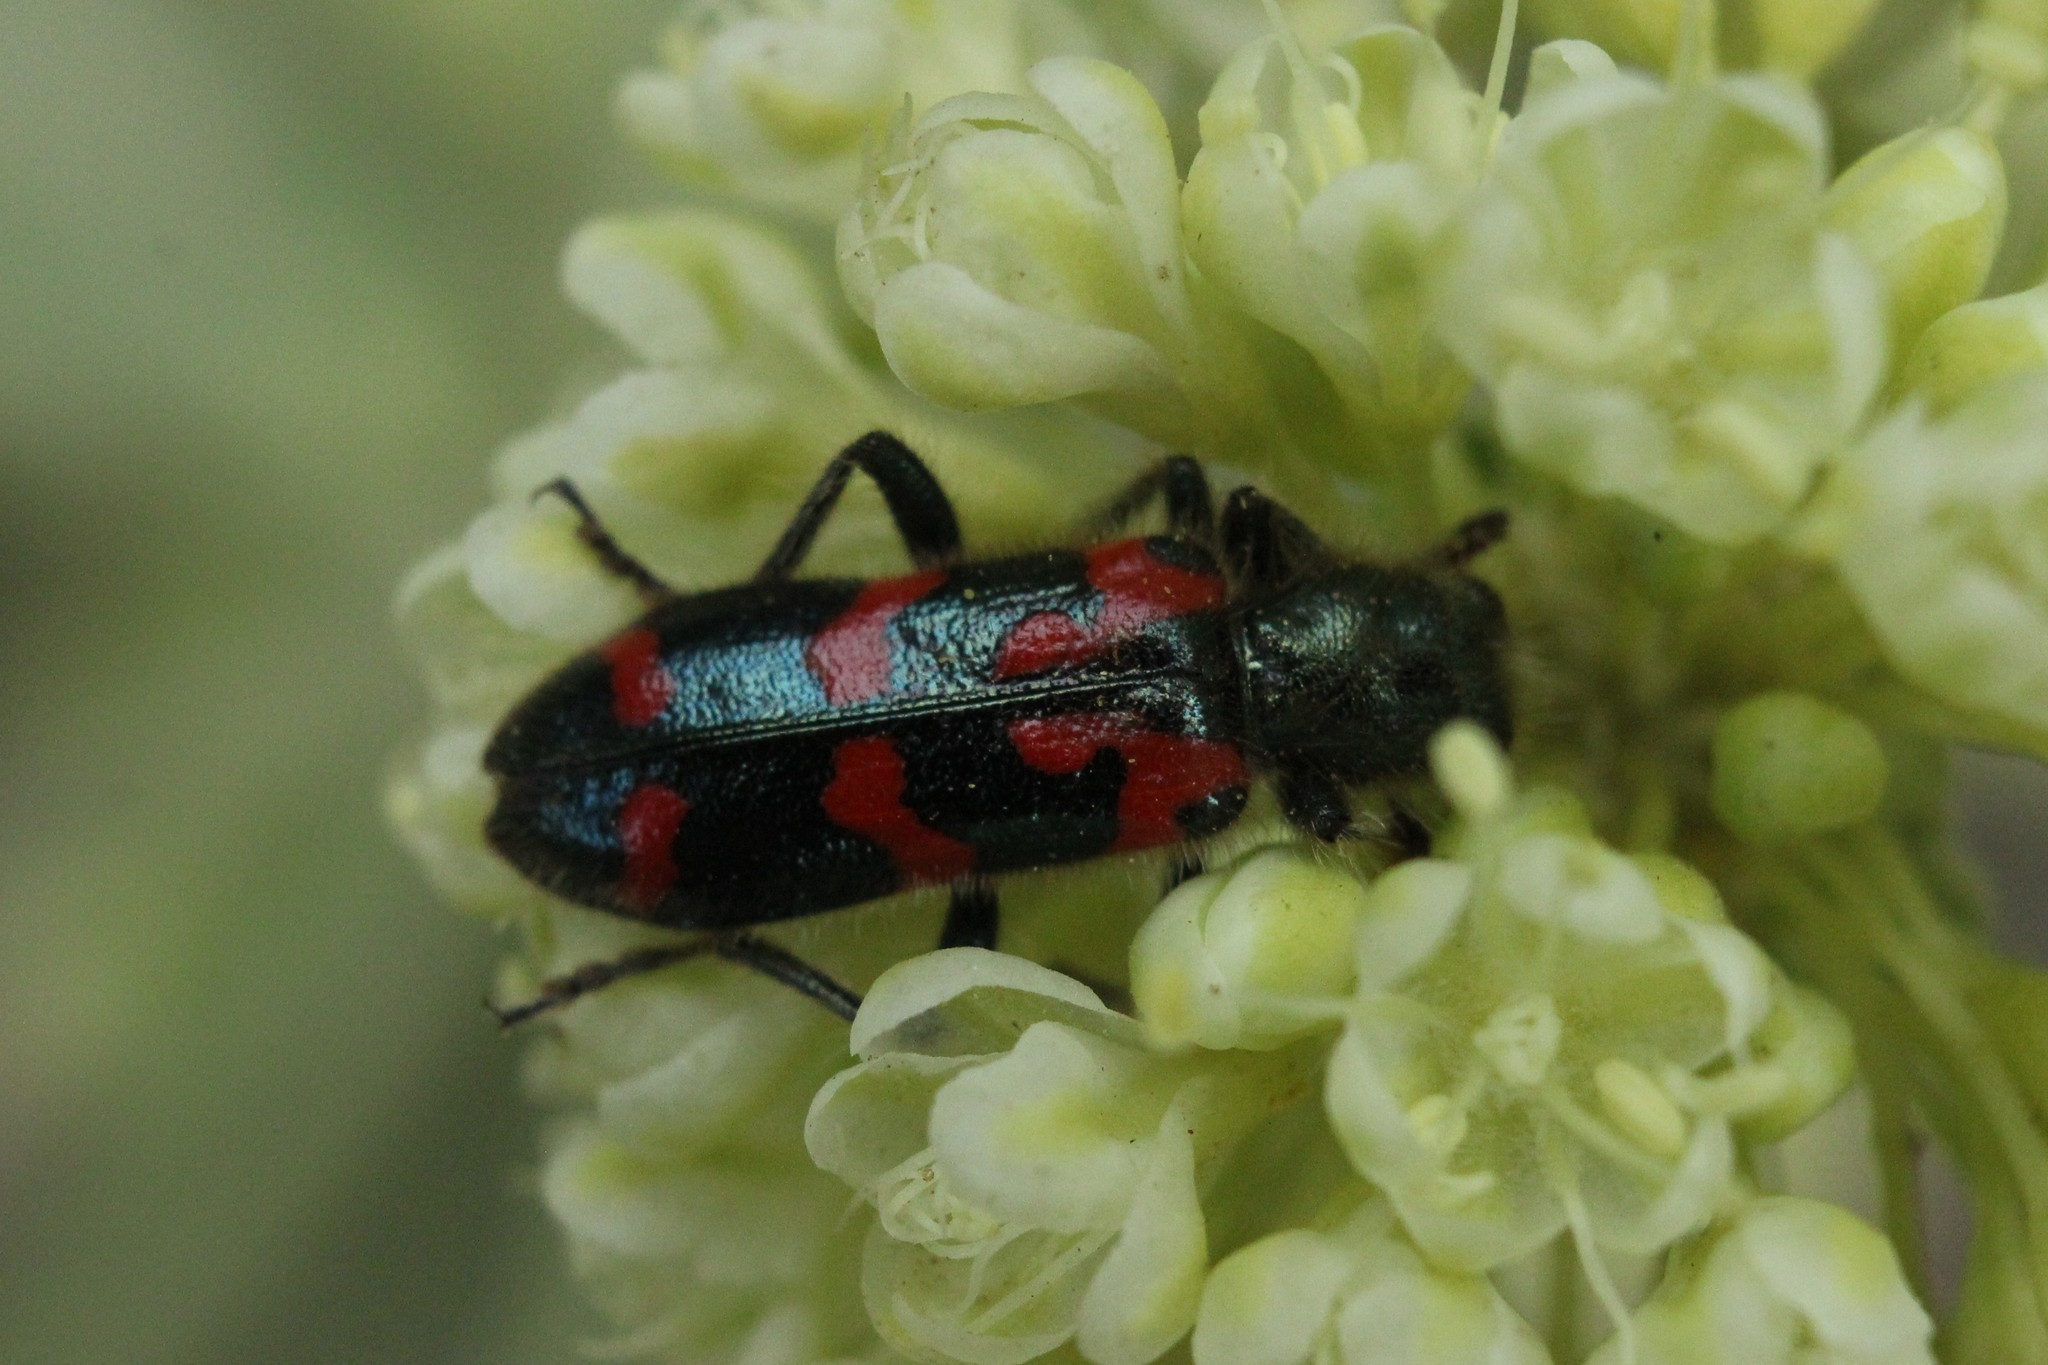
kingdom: Animalia
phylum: Arthropoda
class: Insecta
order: Coleoptera
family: Cleridae
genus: Trichodes
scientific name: Trichodes ornatus
